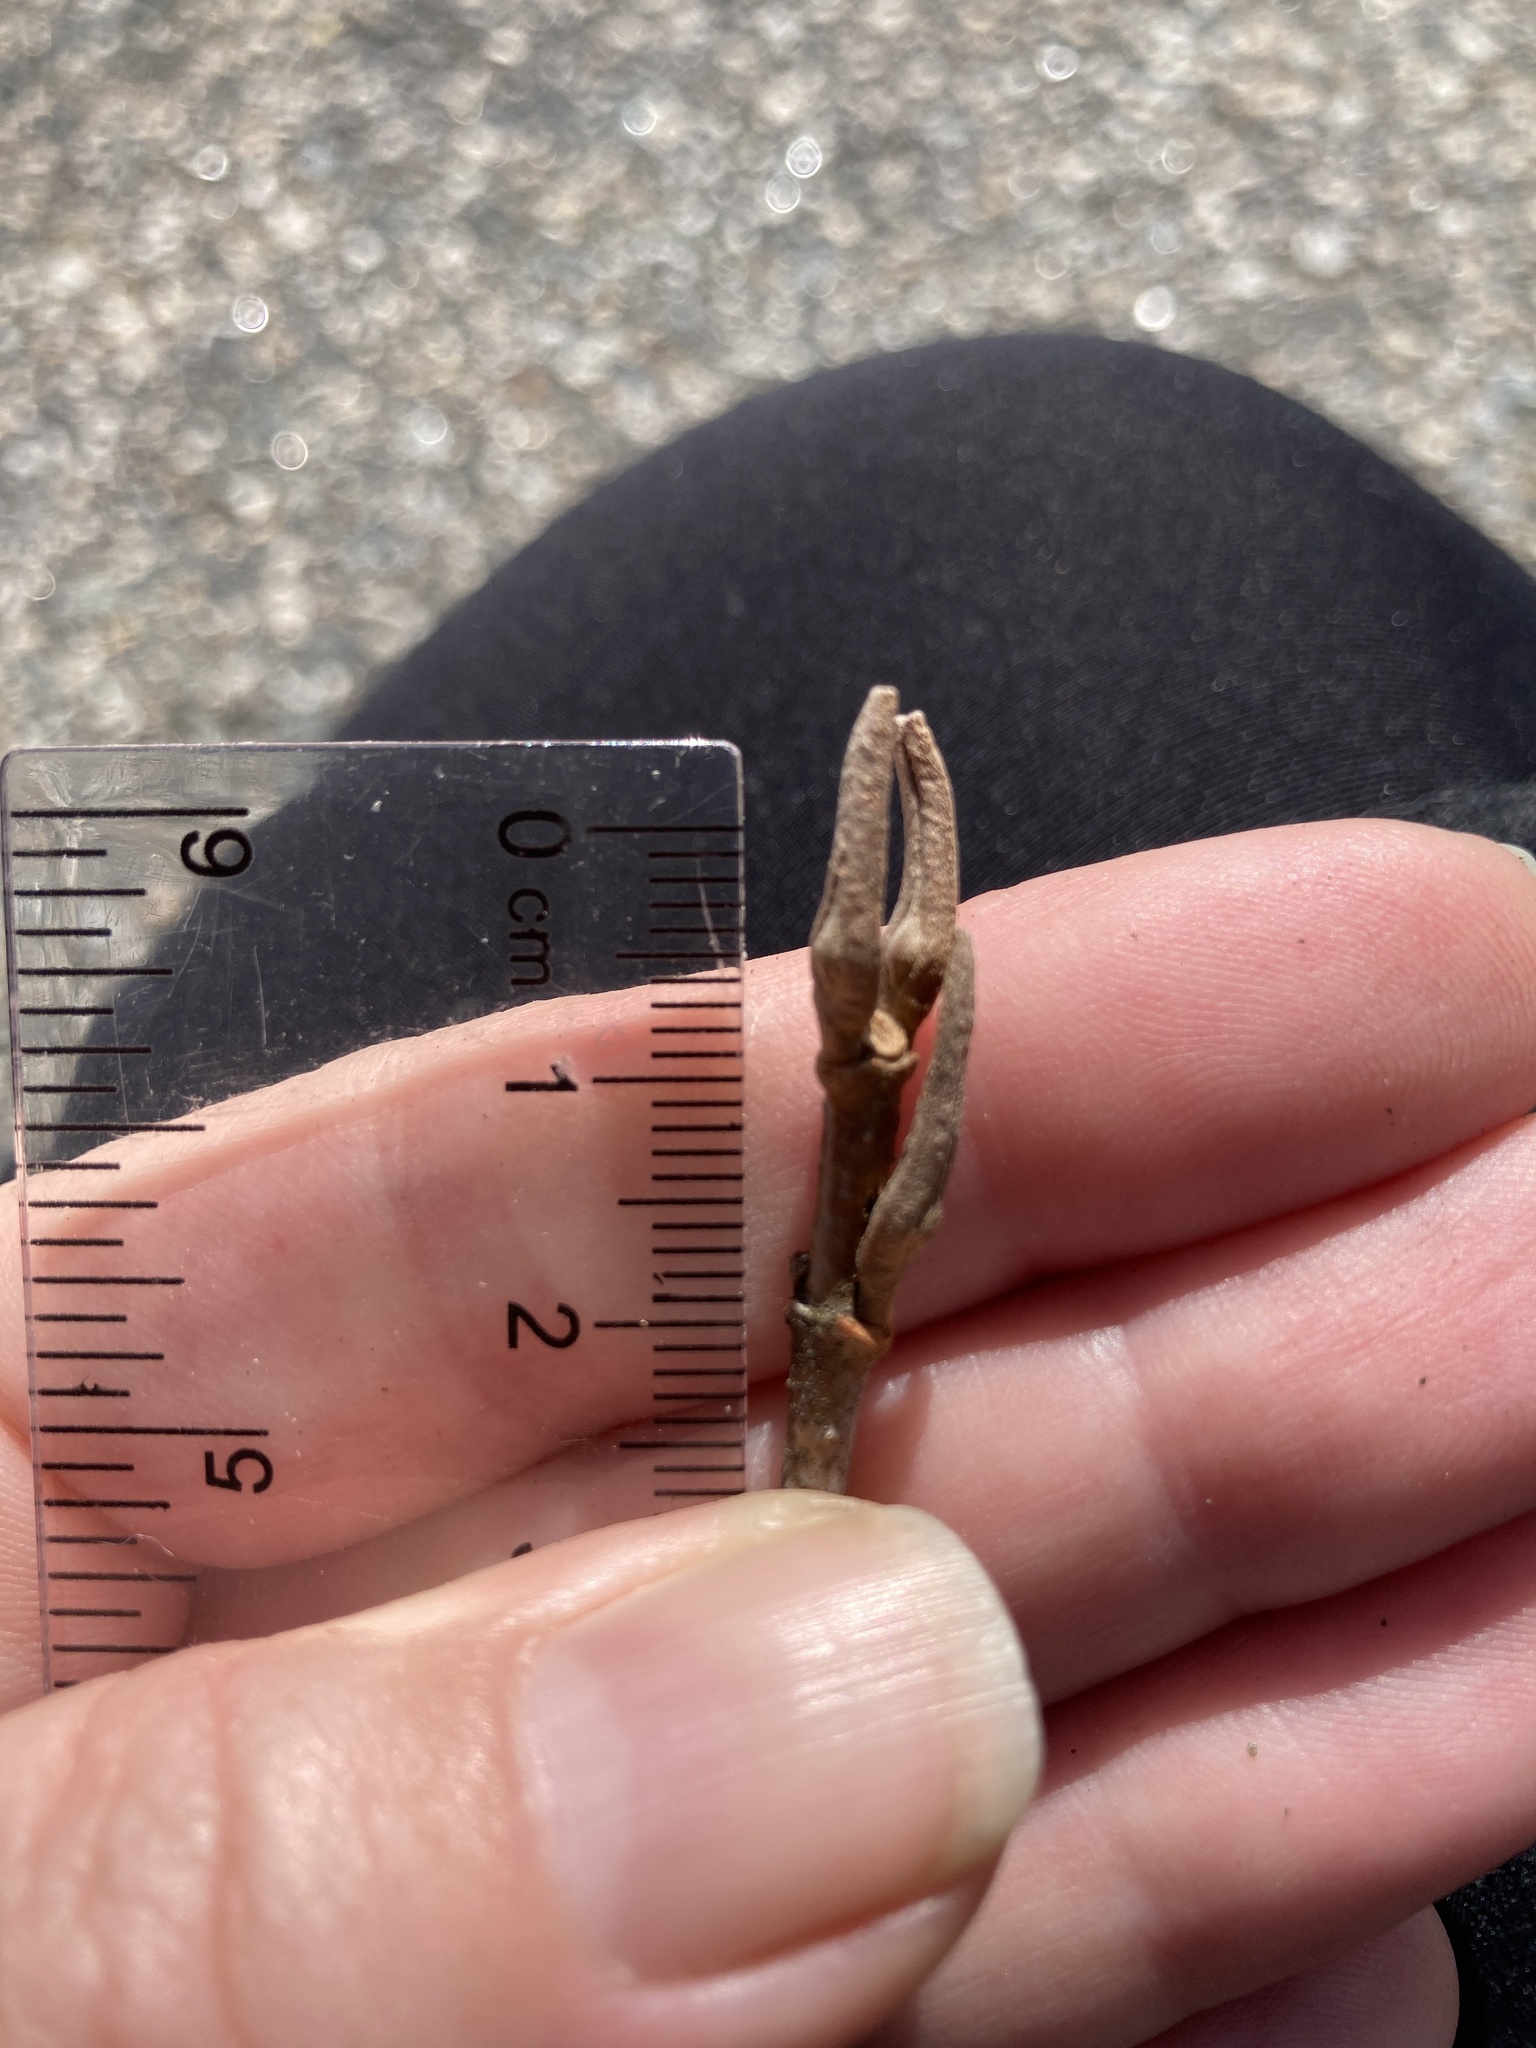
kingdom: Plantae
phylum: Tracheophyta
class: Magnoliopsida
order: Dipsacales
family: Viburnaceae
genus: Viburnum
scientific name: Viburnum cassinoides
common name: Swamp haw
